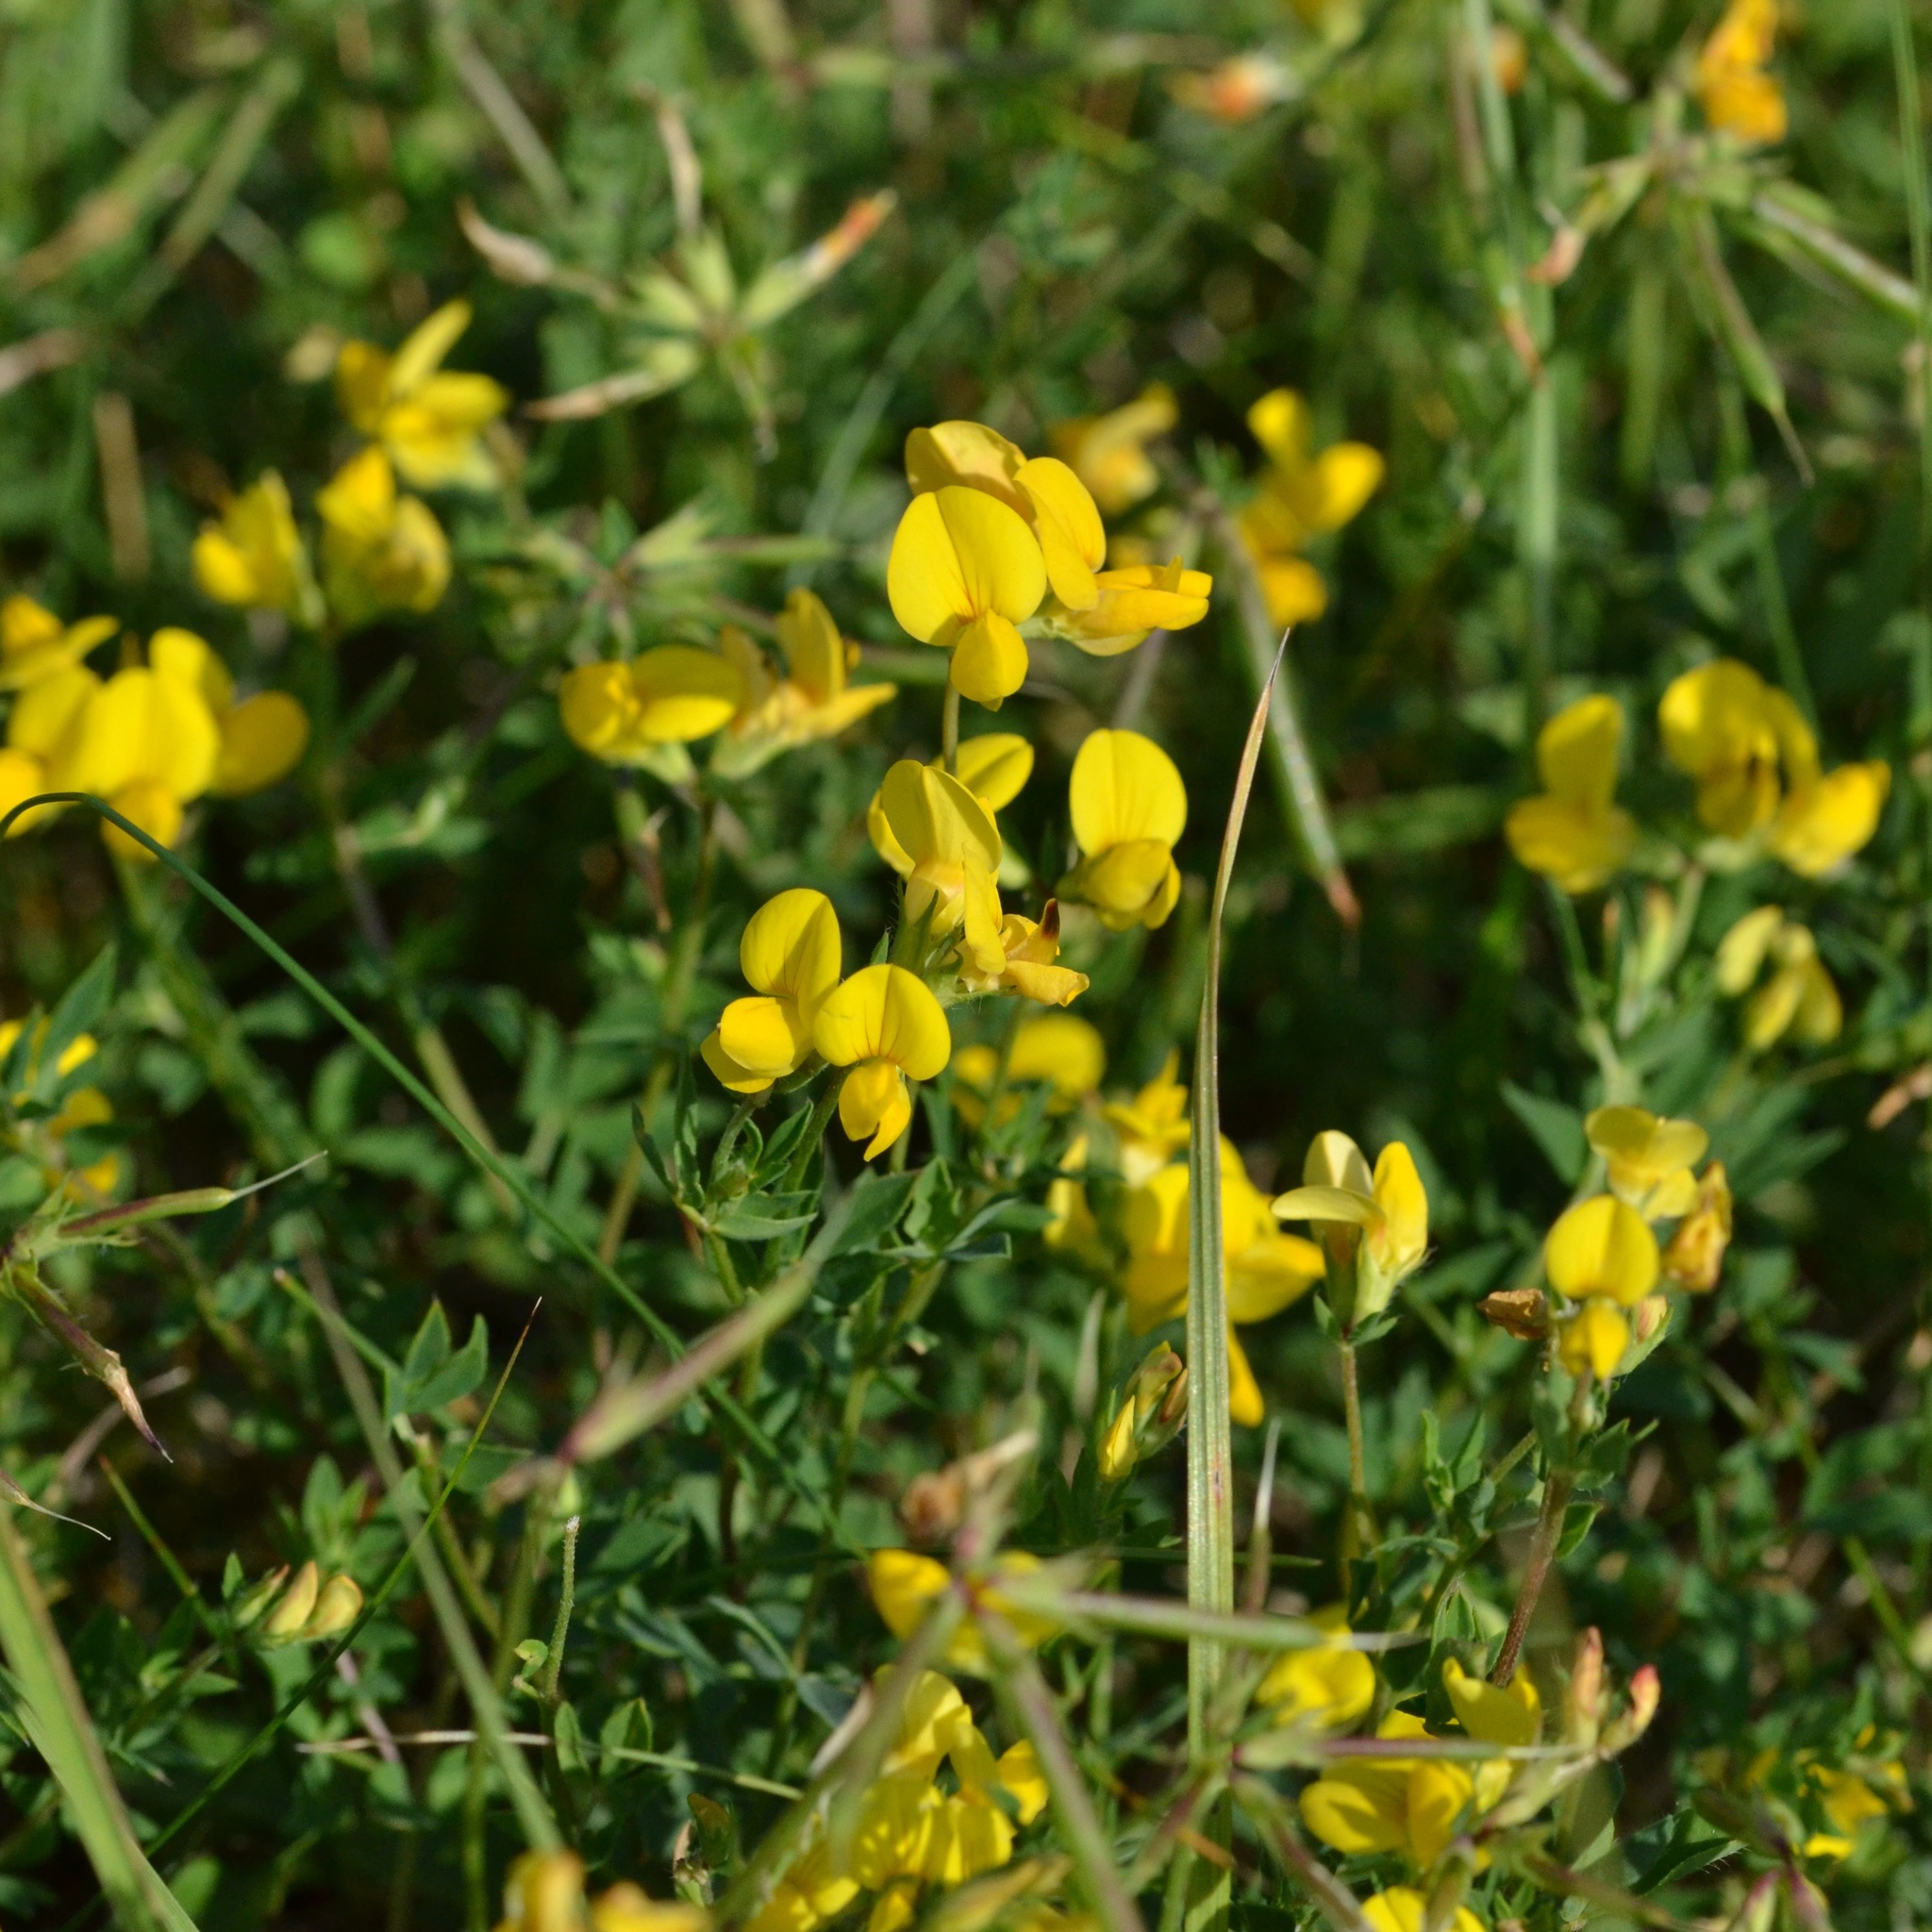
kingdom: Plantae
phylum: Tracheophyta
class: Magnoliopsida
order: Fabales
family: Fabaceae
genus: Lotus
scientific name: Lotus corniculatus
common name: Common bird's-foot-trefoil
